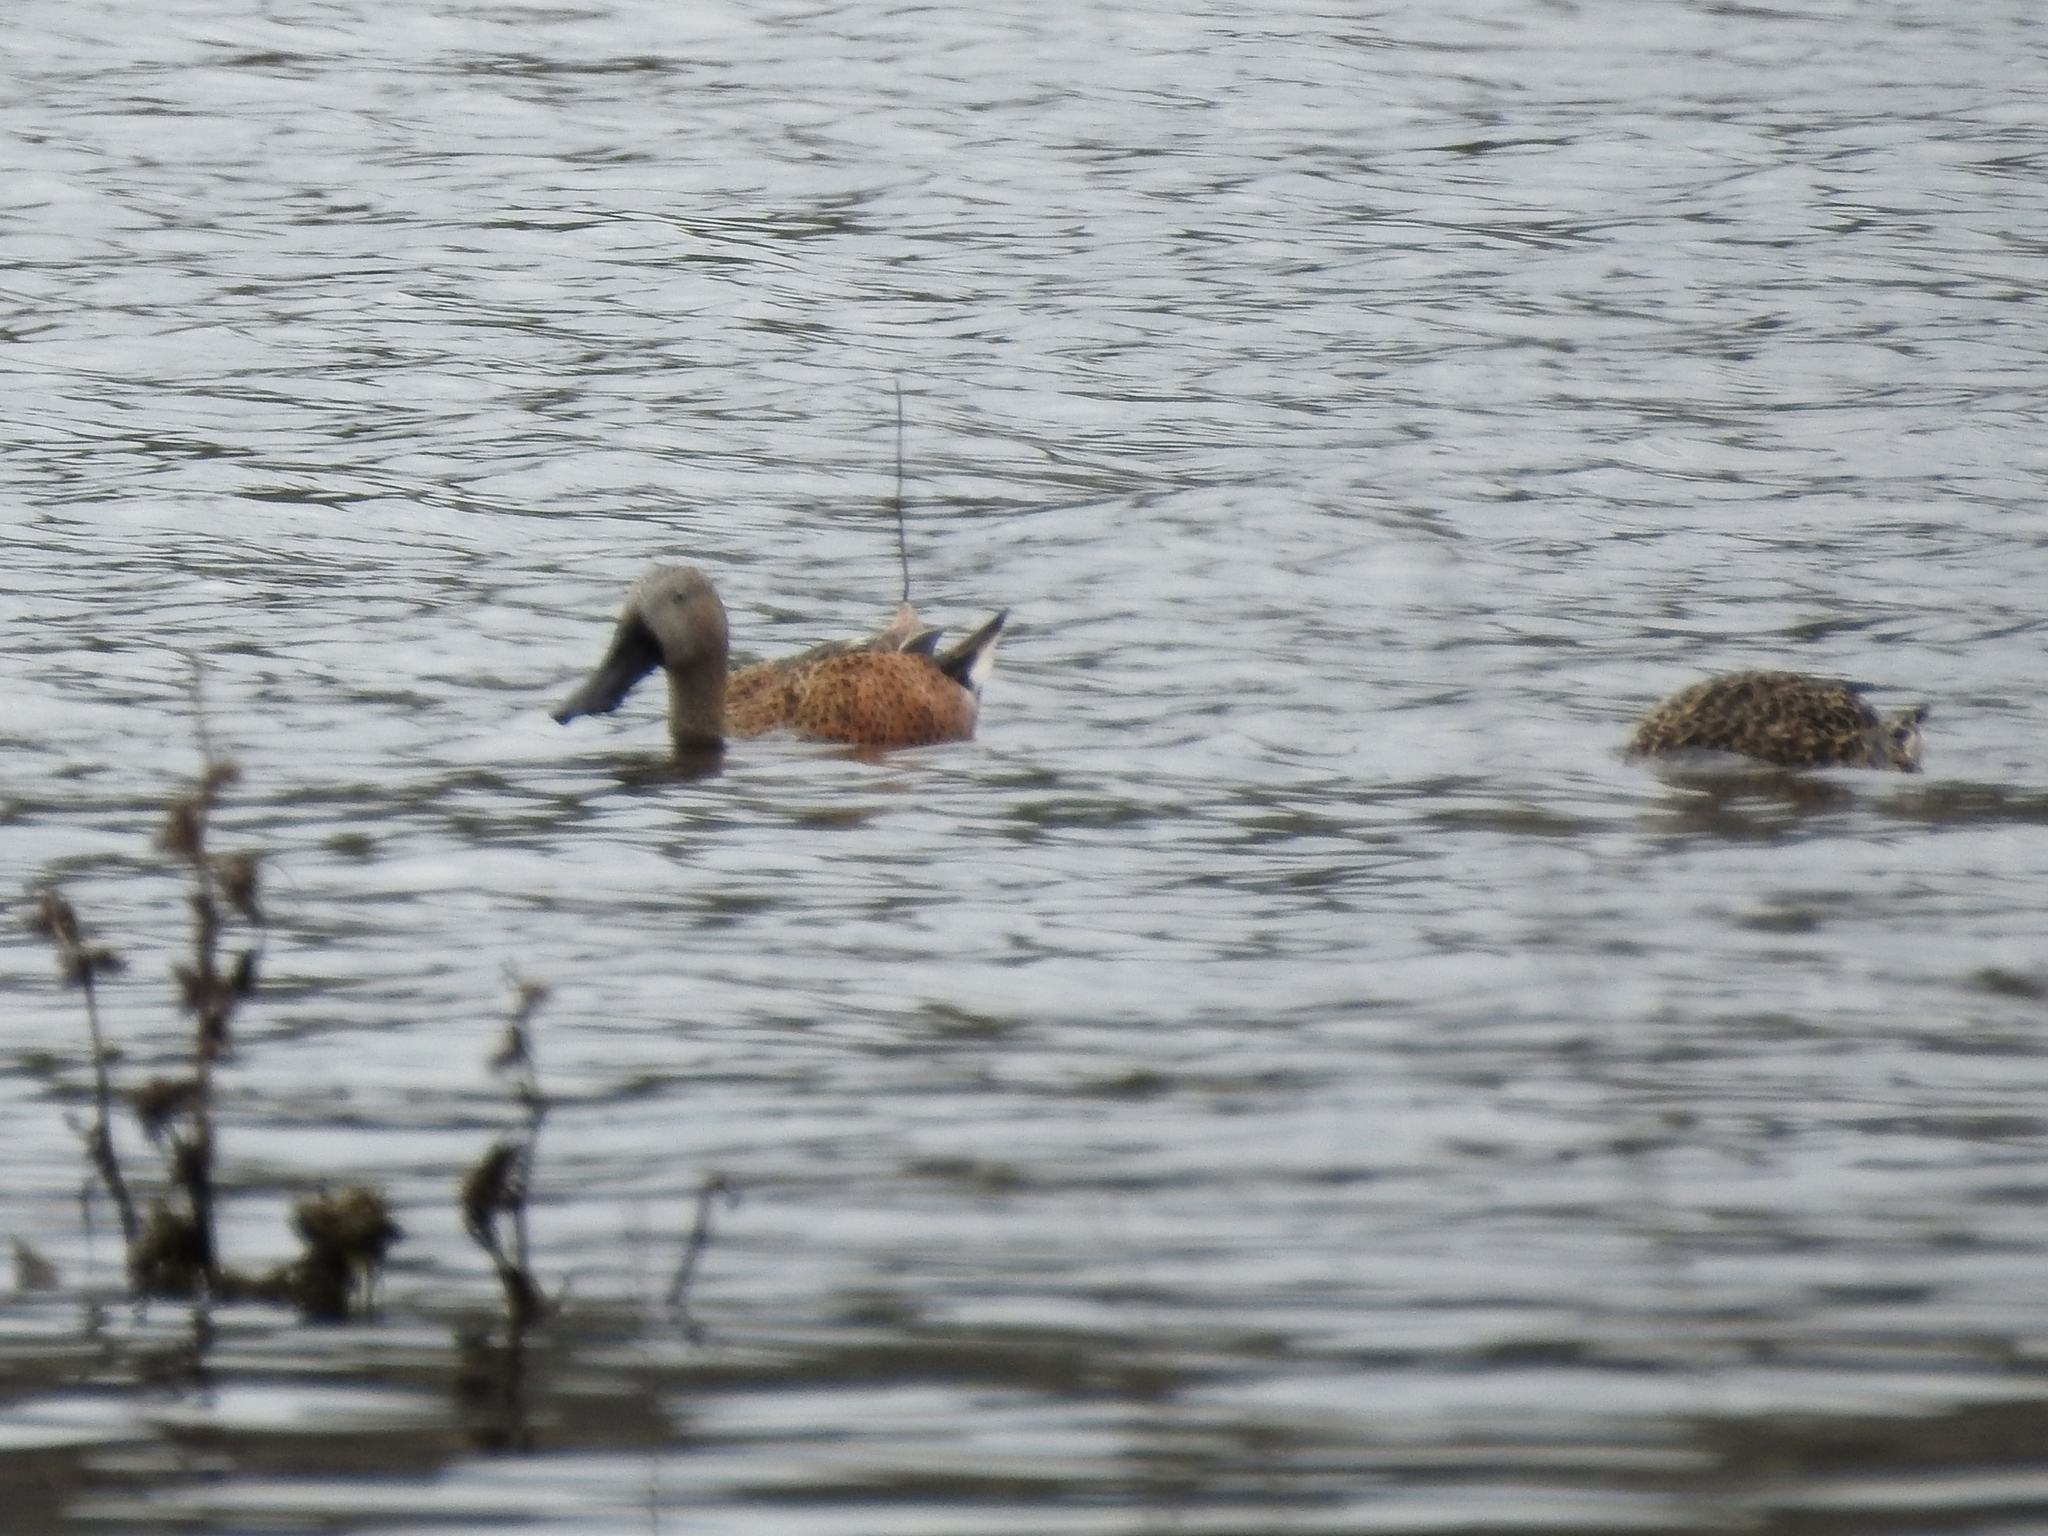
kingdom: Animalia
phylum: Chordata
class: Aves
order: Anseriformes
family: Anatidae
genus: Spatula
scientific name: Spatula platalea
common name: Red shoveler
